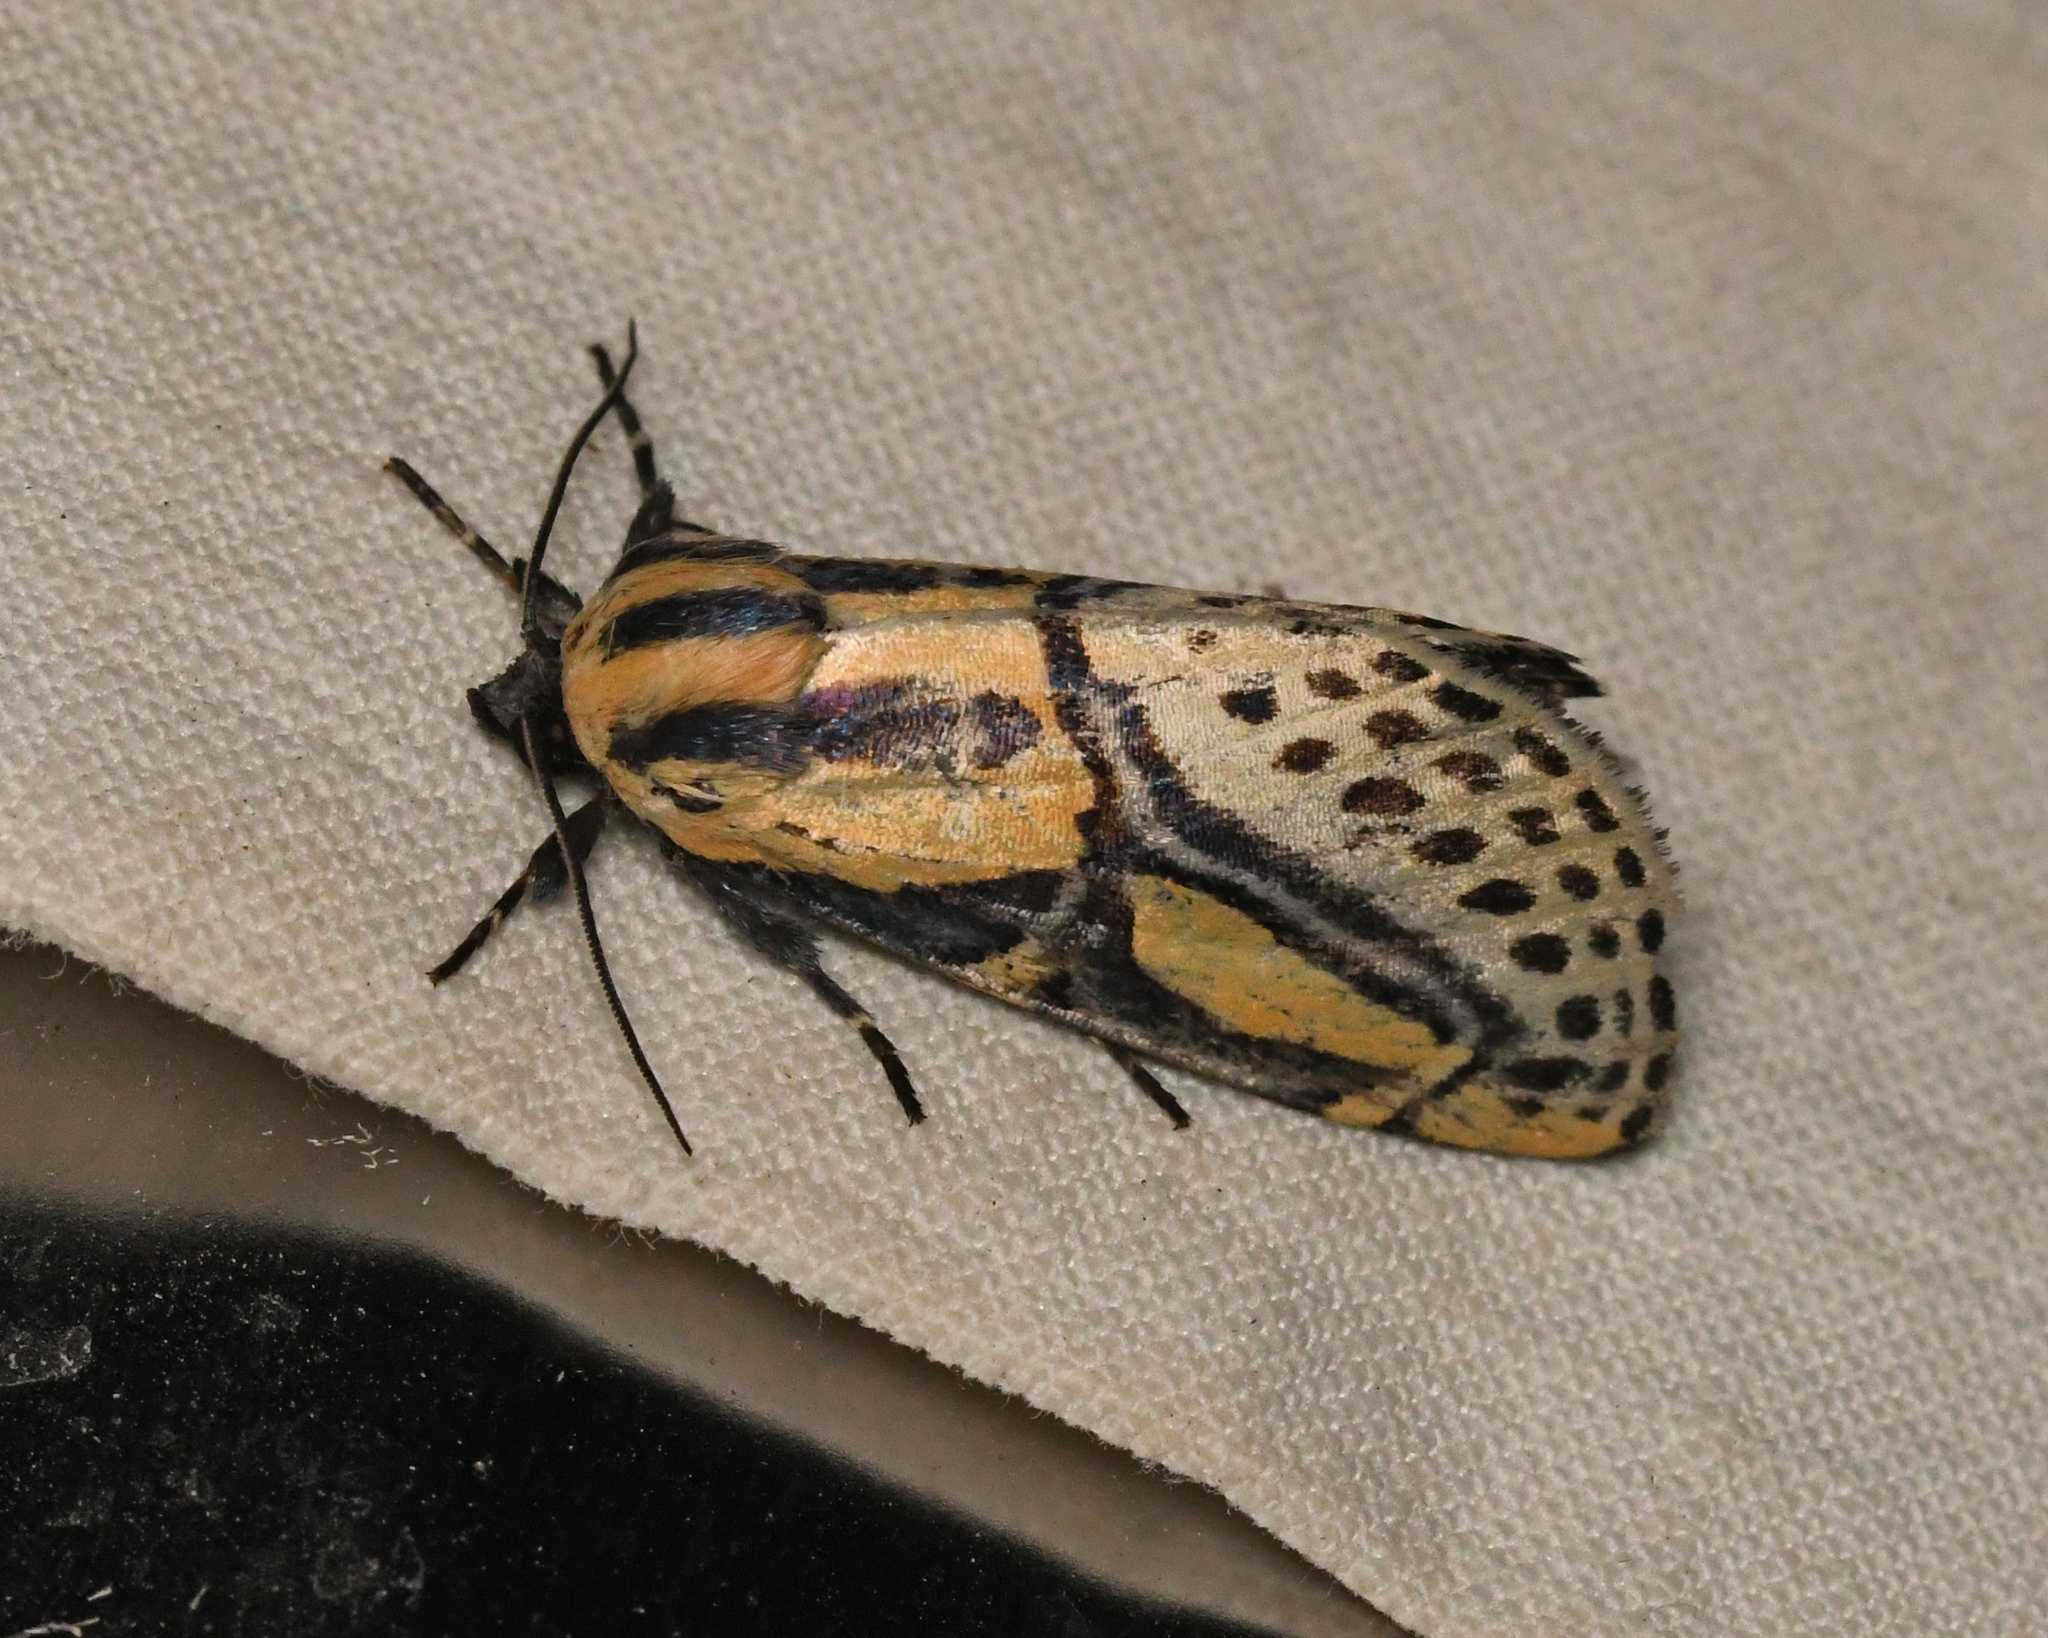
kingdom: Animalia
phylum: Arthropoda
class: Insecta
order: Lepidoptera
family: Erebidae
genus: Diphthera
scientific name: Diphthera festiva
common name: Hieroglyphic moth
